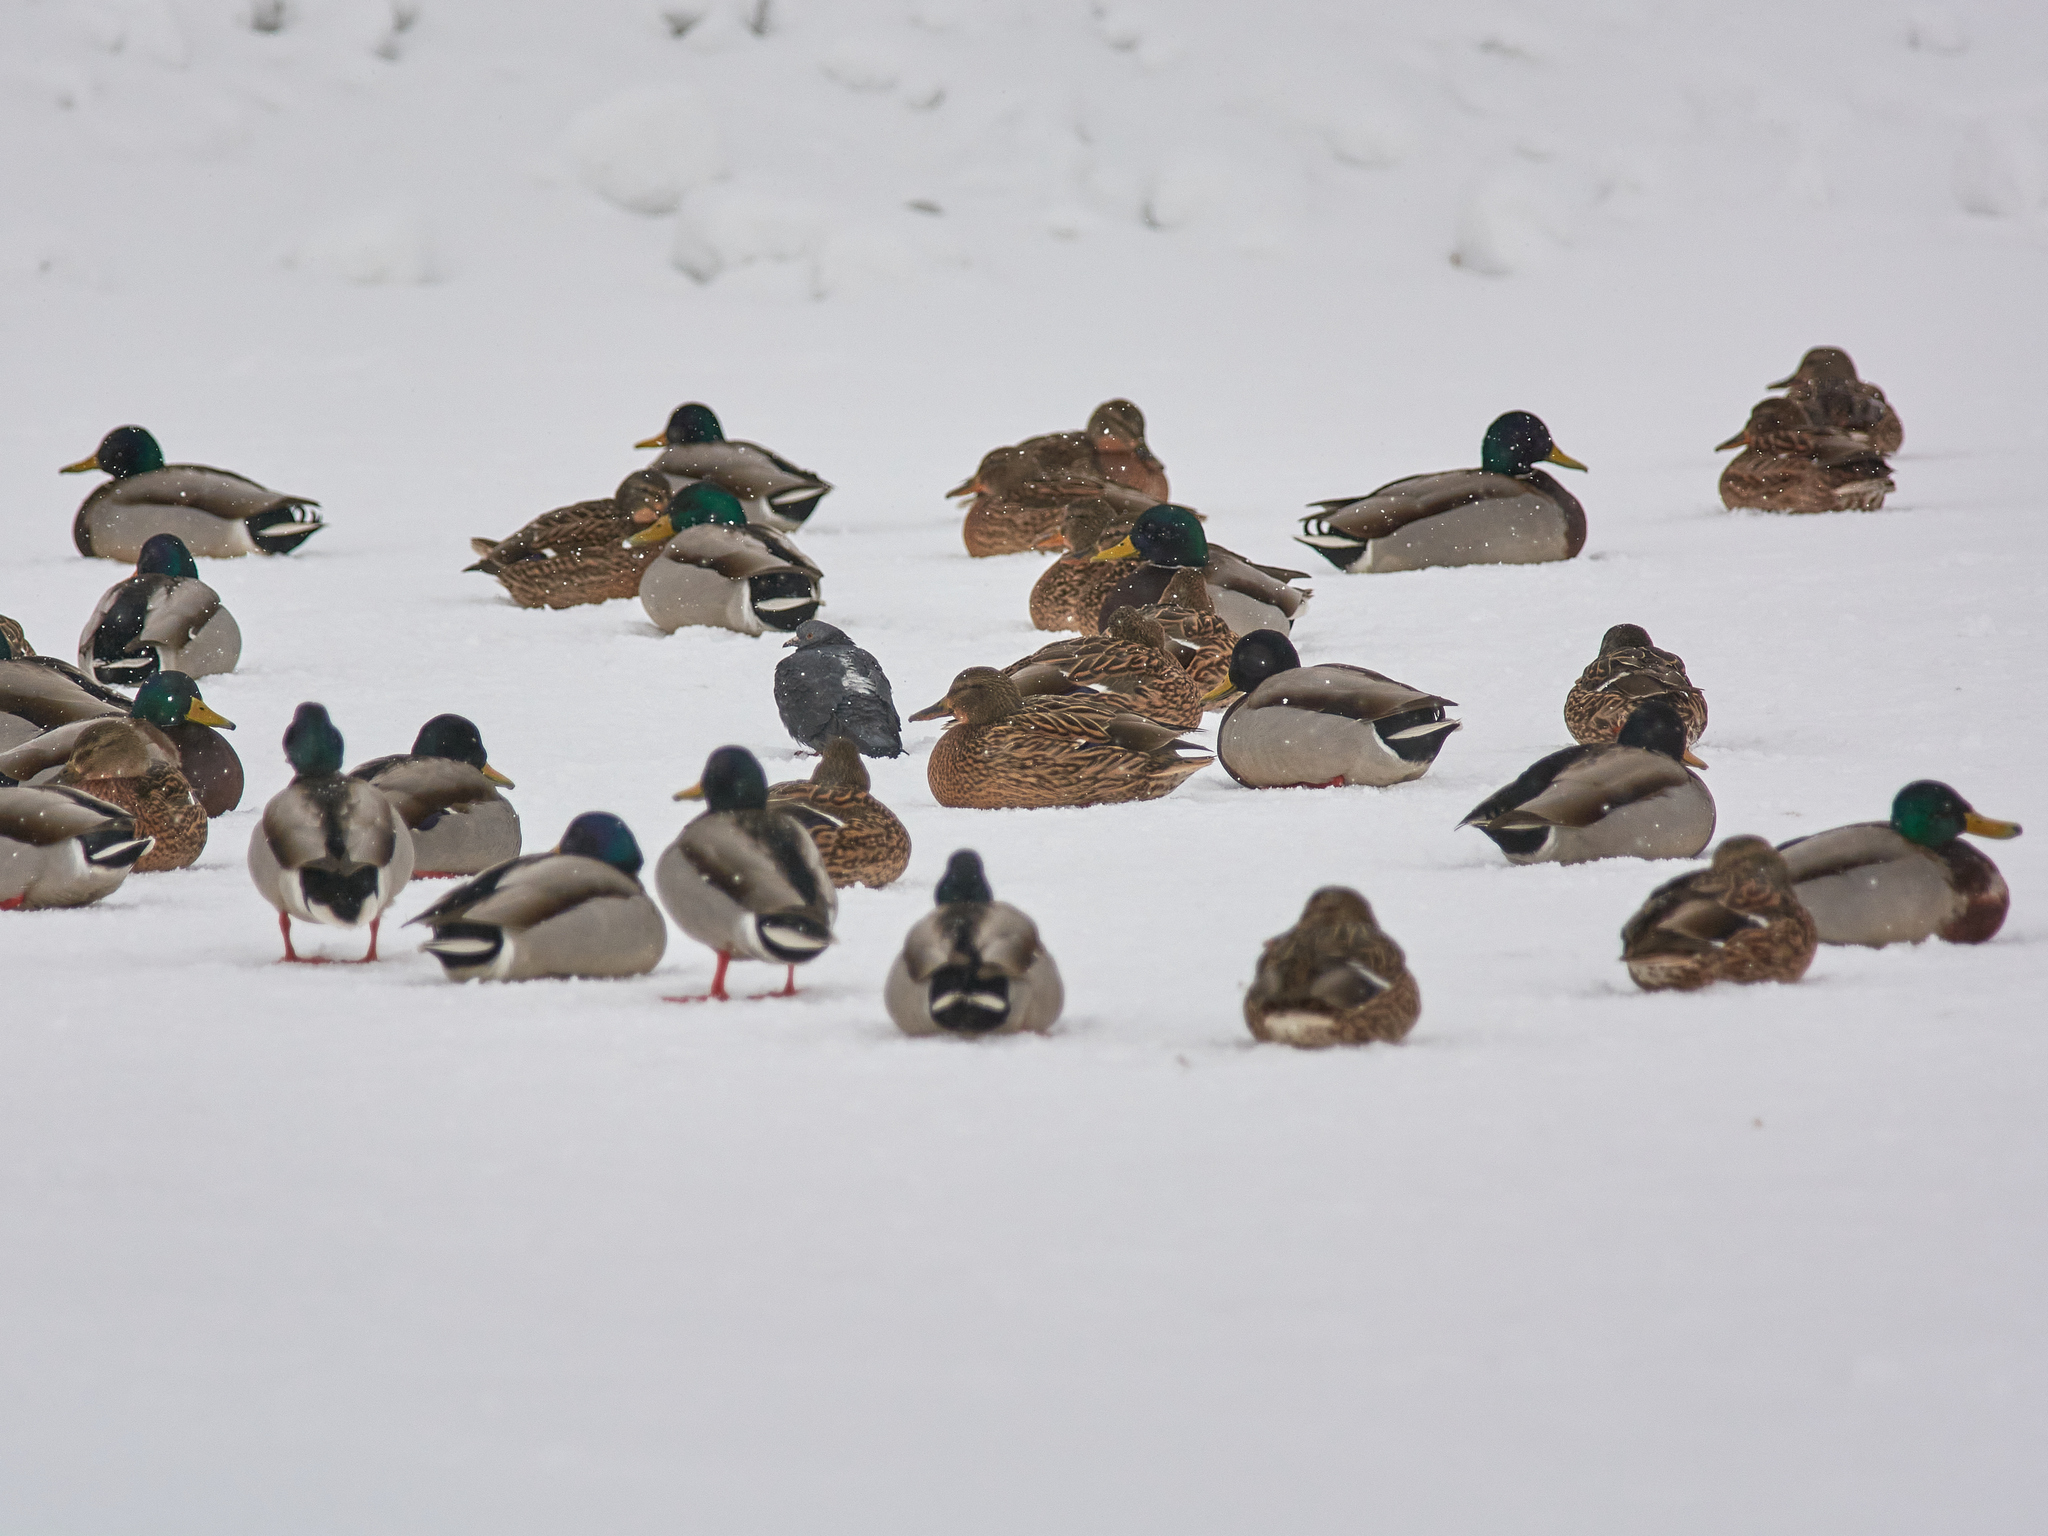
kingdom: Animalia
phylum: Chordata
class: Aves
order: Anseriformes
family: Anatidae
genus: Anas
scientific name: Anas platyrhynchos
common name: Mallard
